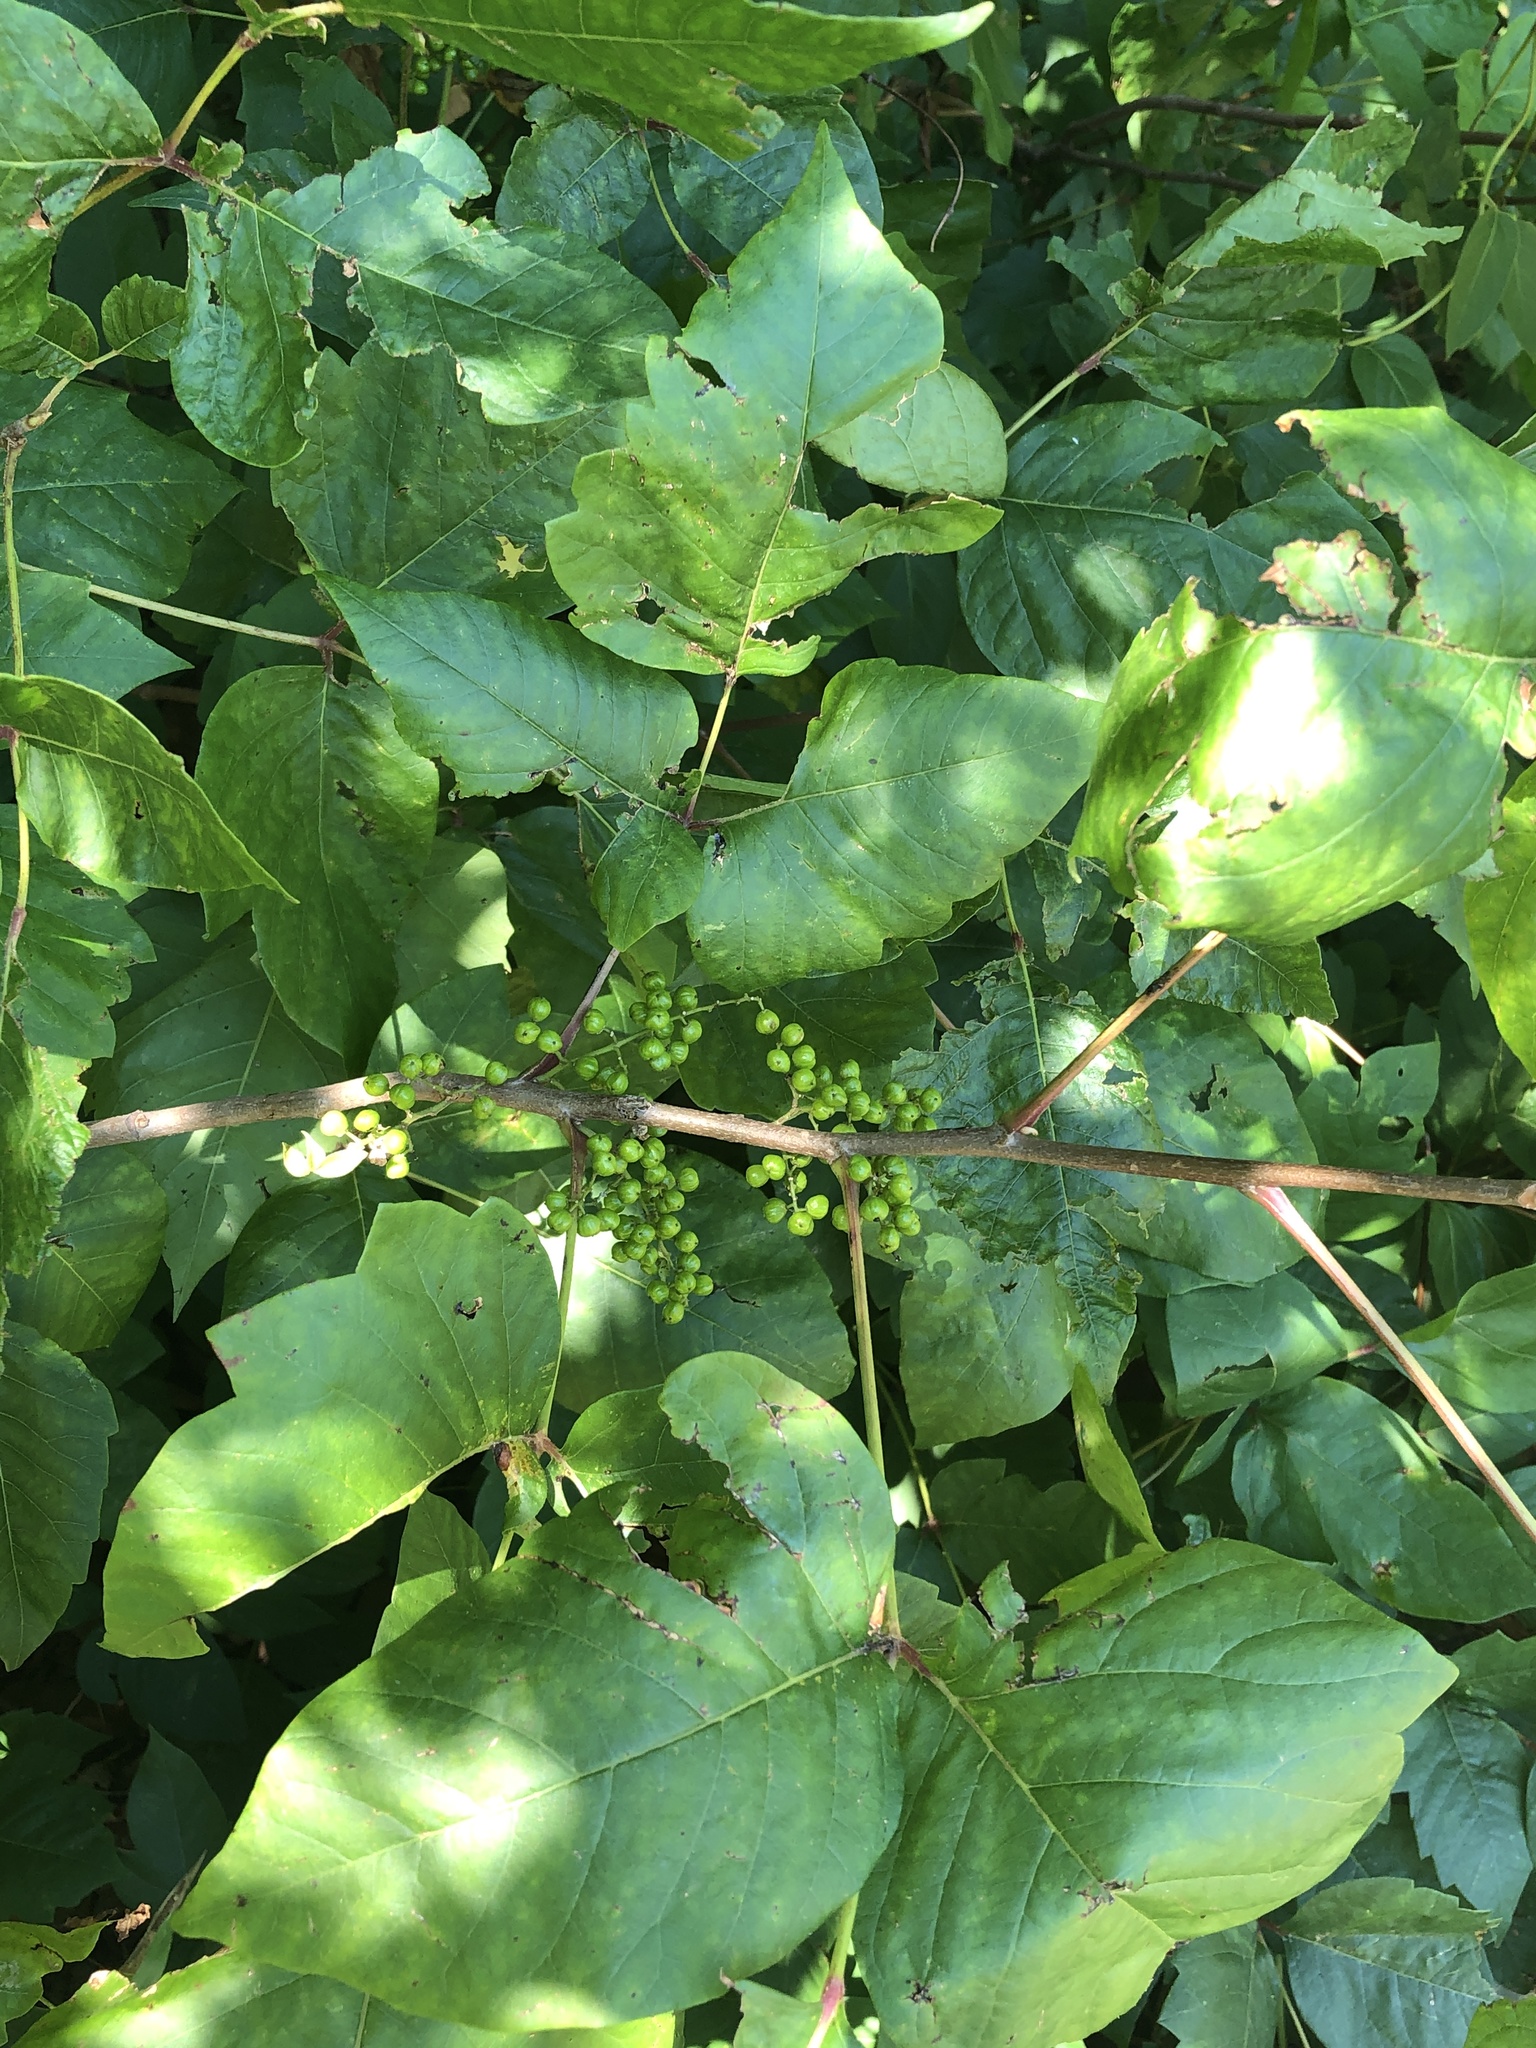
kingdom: Plantae
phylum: Tracheophyta
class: Magnoliopsida
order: Sapindales
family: Anacardiaceae
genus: Toxicodendron
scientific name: Toxicodendron radicans
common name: Poison ivy
